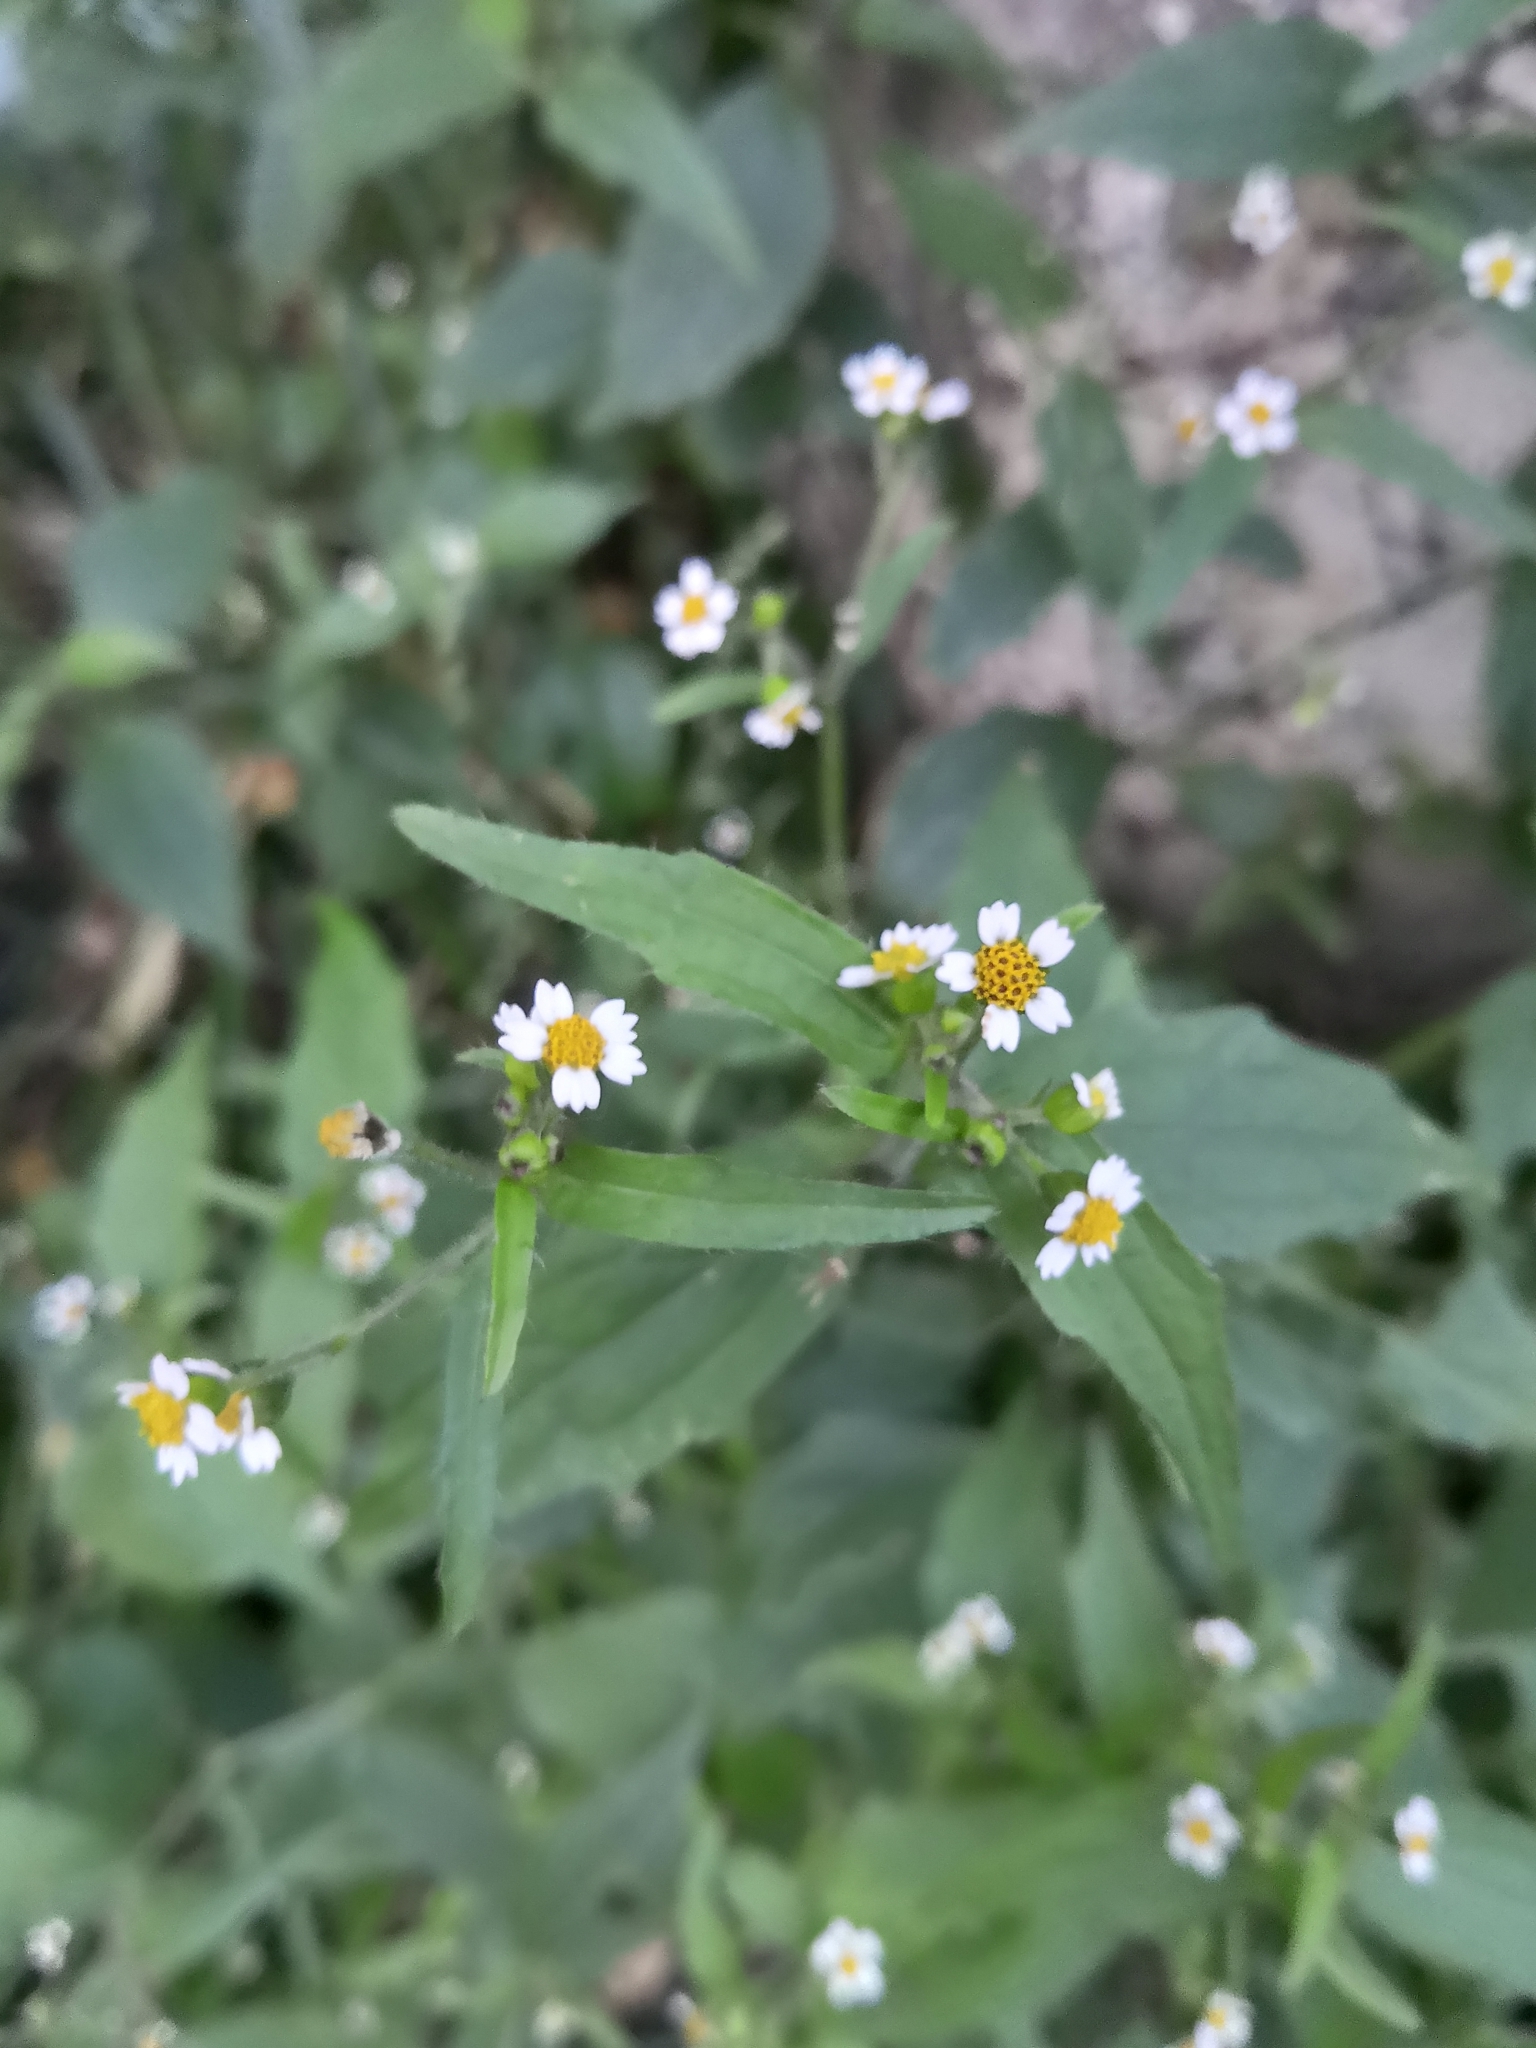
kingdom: Plantae
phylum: Tracheophyta
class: Magnoliopsida
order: Asterales
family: Asteraceae
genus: Galinsoga
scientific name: Galinsoga quadriradiata
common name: Shaggy soldier
